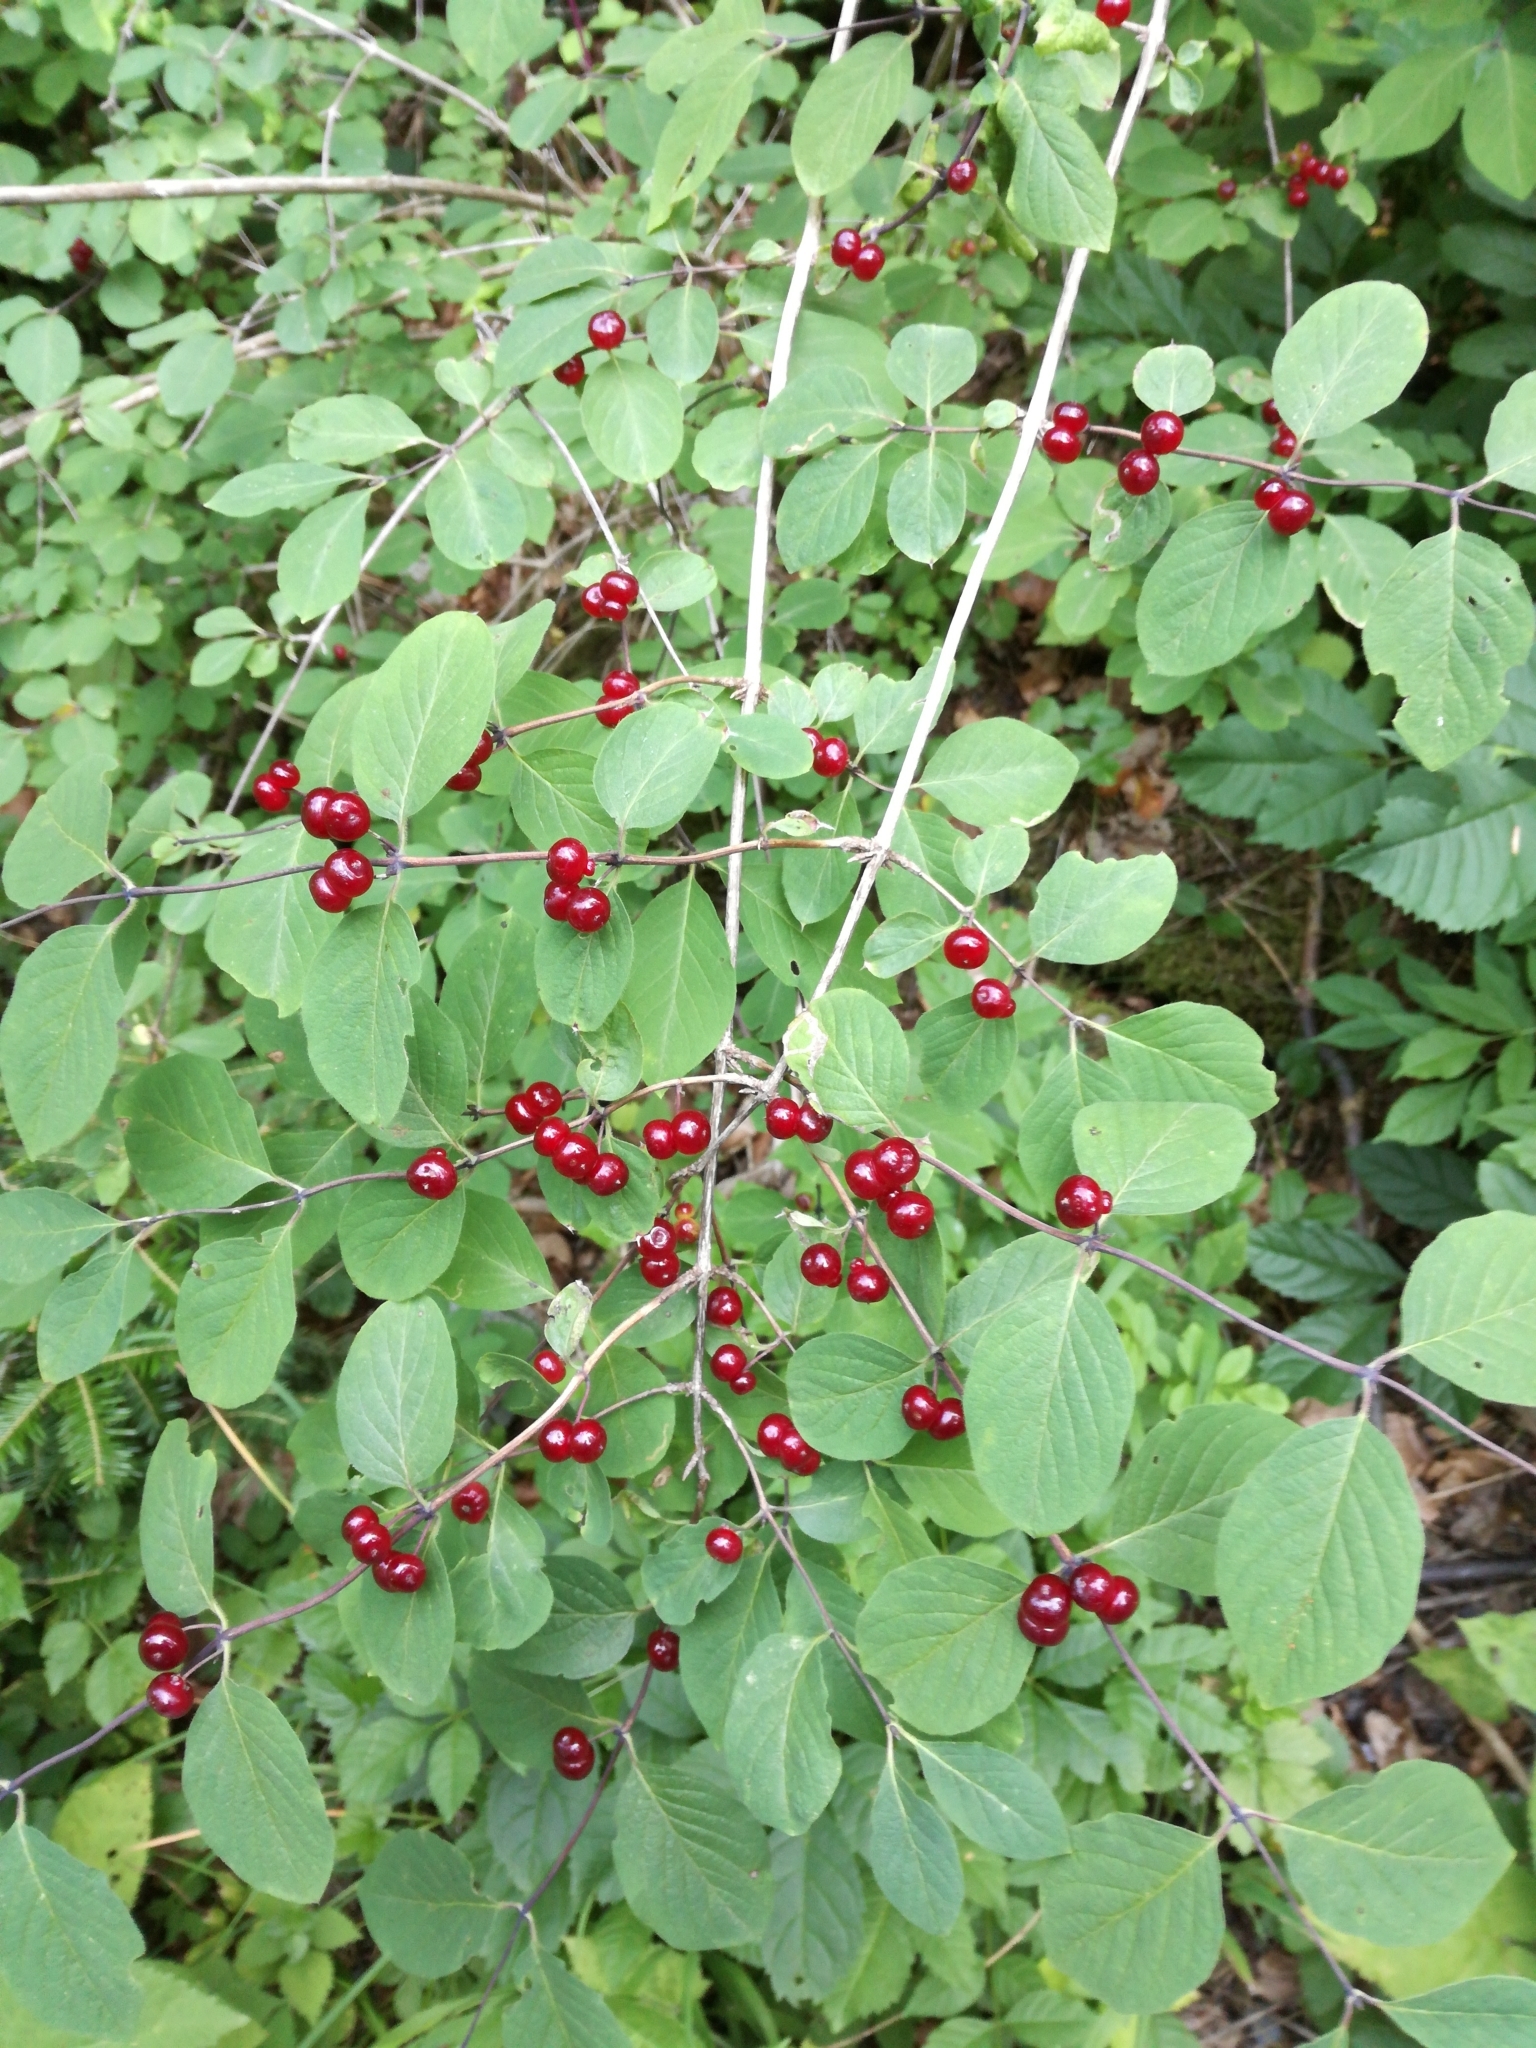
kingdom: Plantae
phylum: Tracheophyta
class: Magnoliopsida
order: Dipsacales
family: Caprifoliaceae
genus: Lonicera
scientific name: Lonicera xylosteum
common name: Fly honeysuckle
